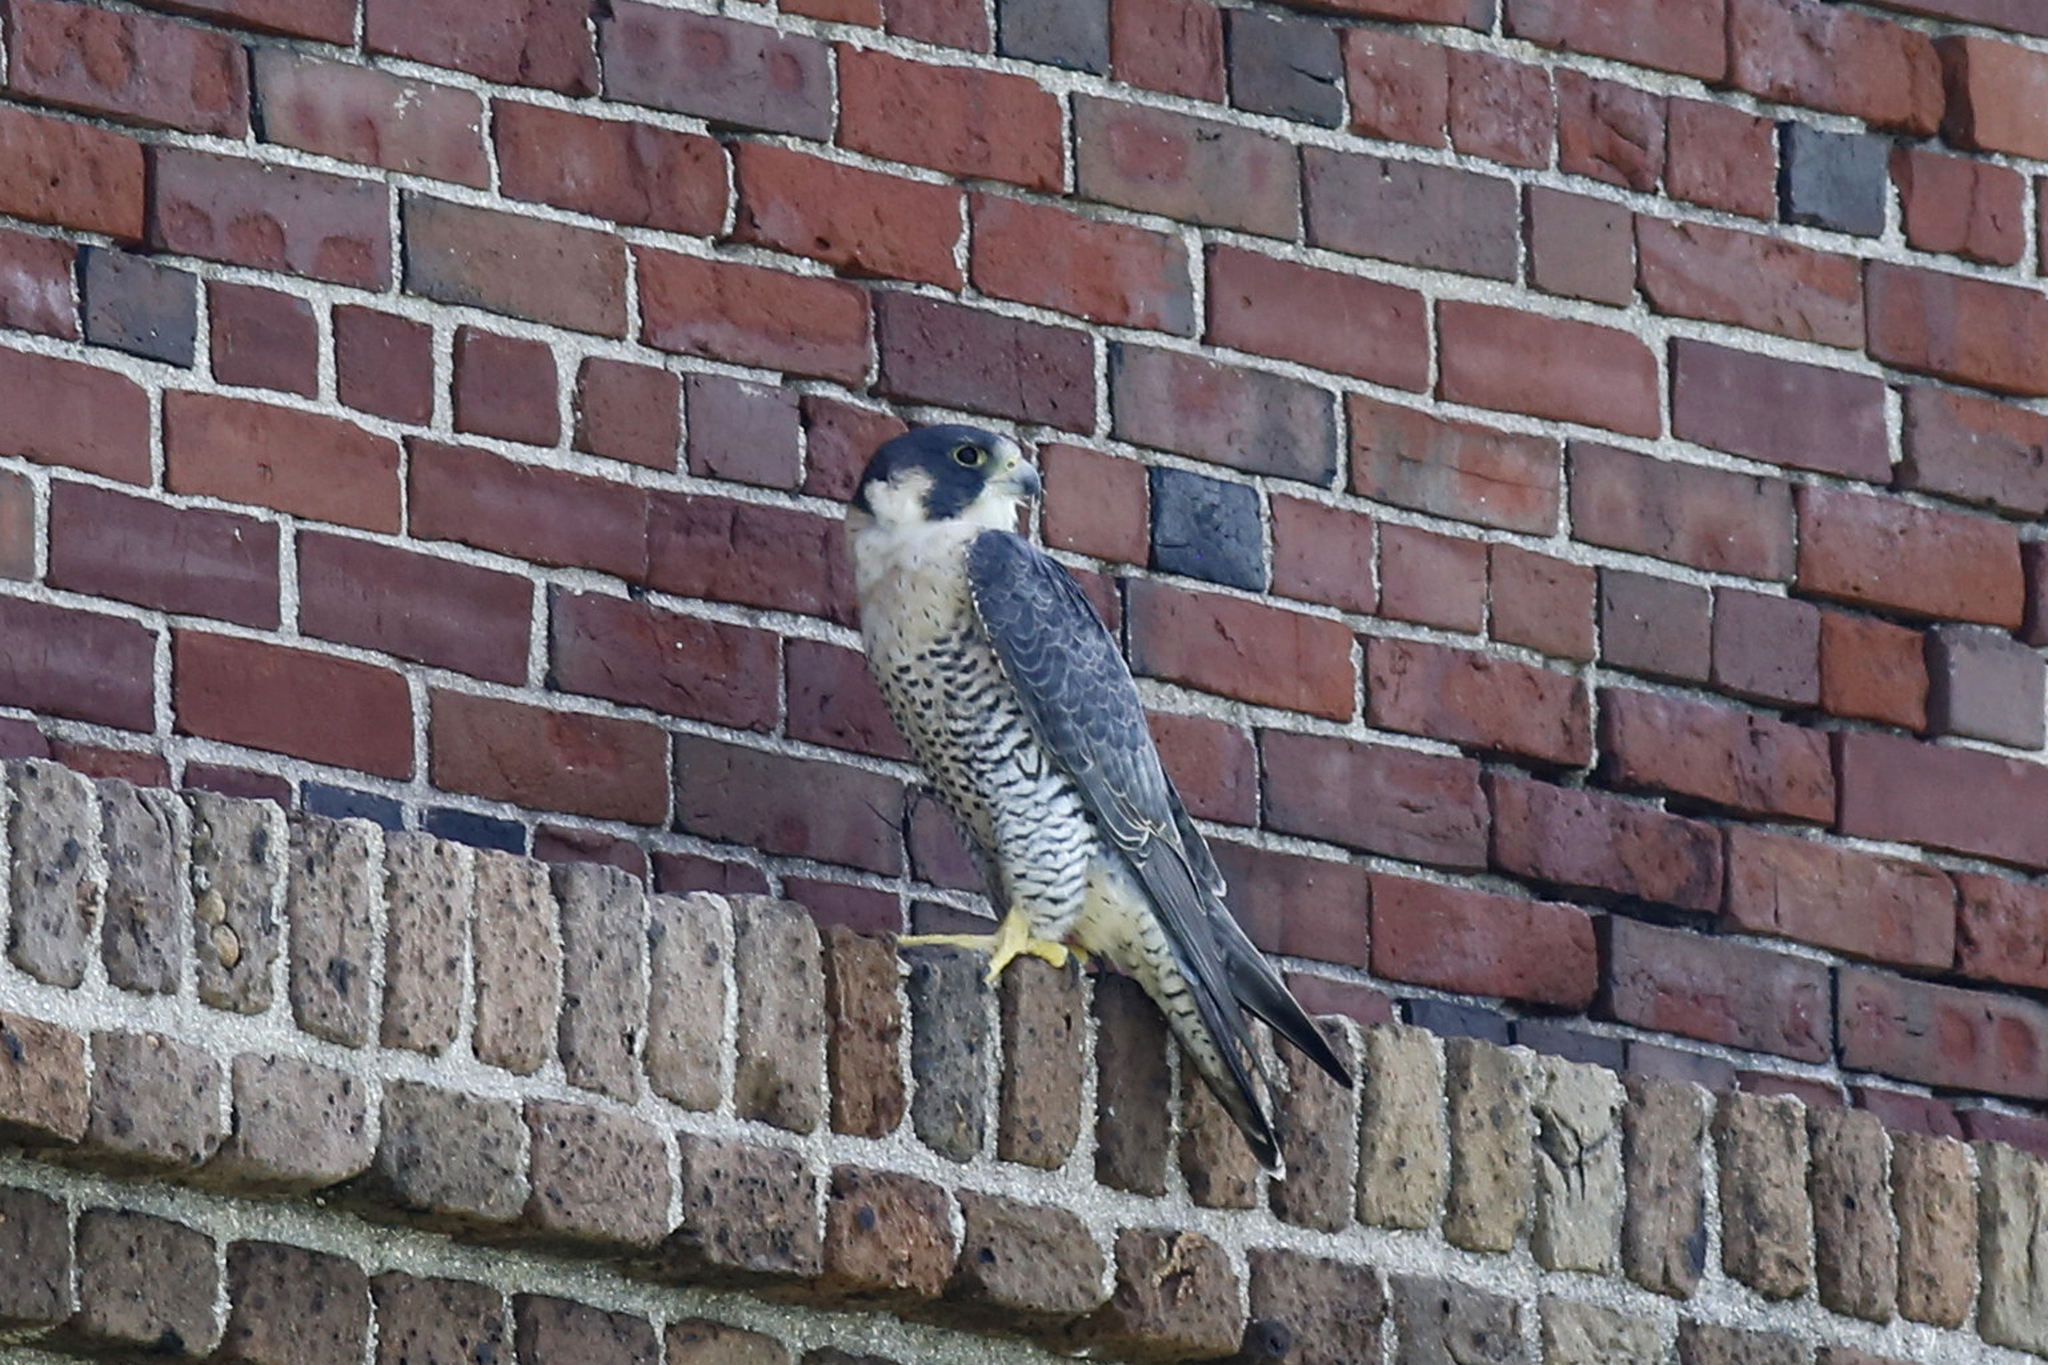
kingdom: Animalia
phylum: Chordata
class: Aves
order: Falconiformes
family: Falconidae
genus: Falco
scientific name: Falco peregrinus
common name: Peregrine falcon
